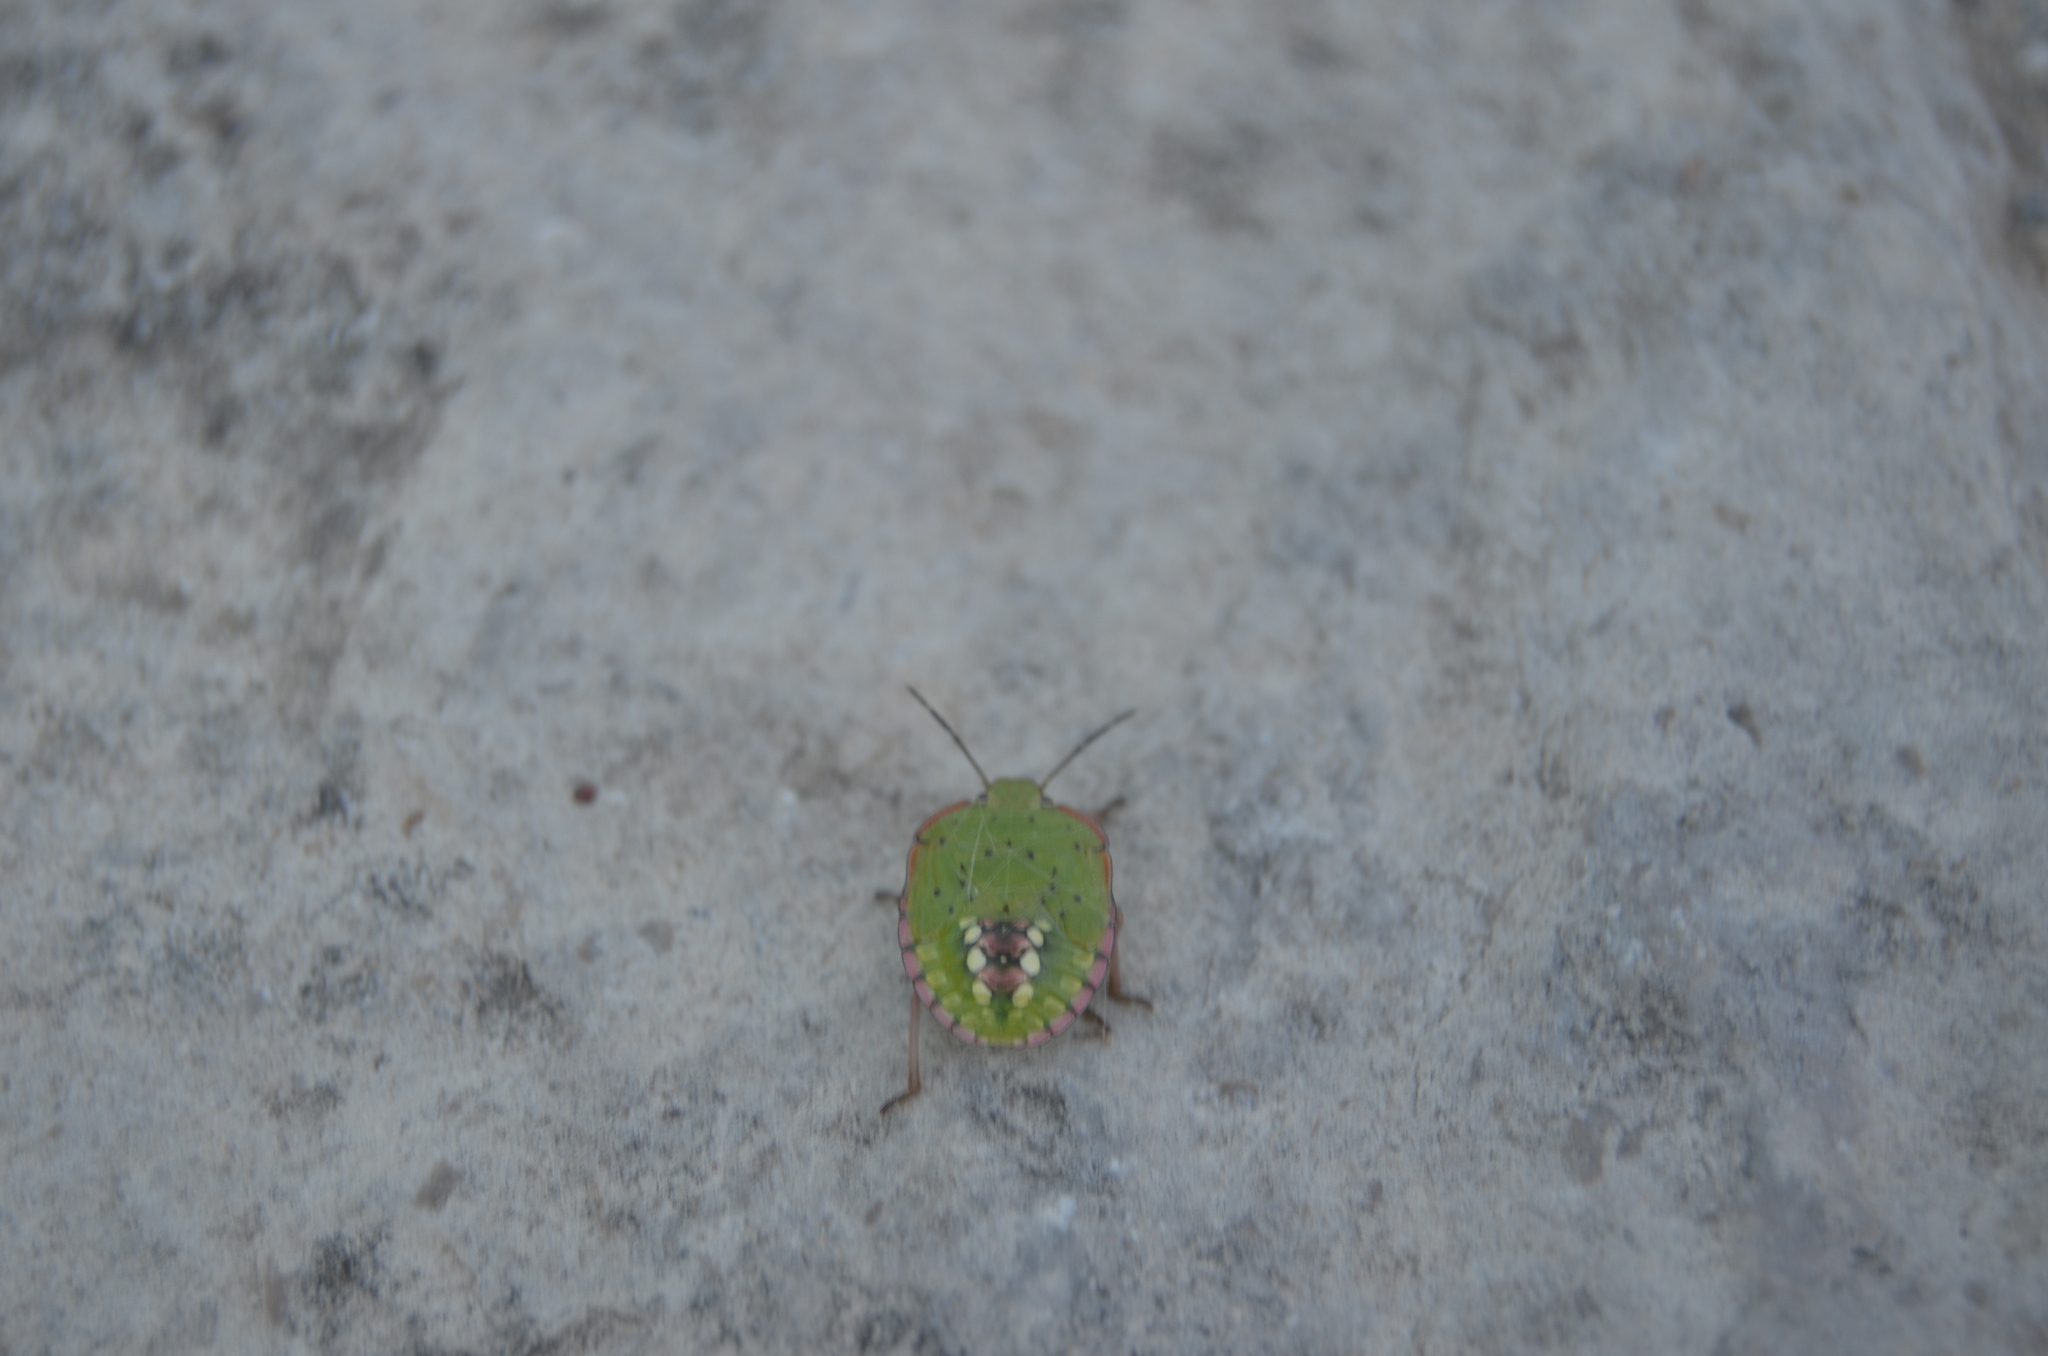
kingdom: Animalia
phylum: Arthropoda
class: Insecta
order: Hemiptera
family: Pentatomidae
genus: Nezara
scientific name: Nezara viridula
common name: Southern green stink bug
